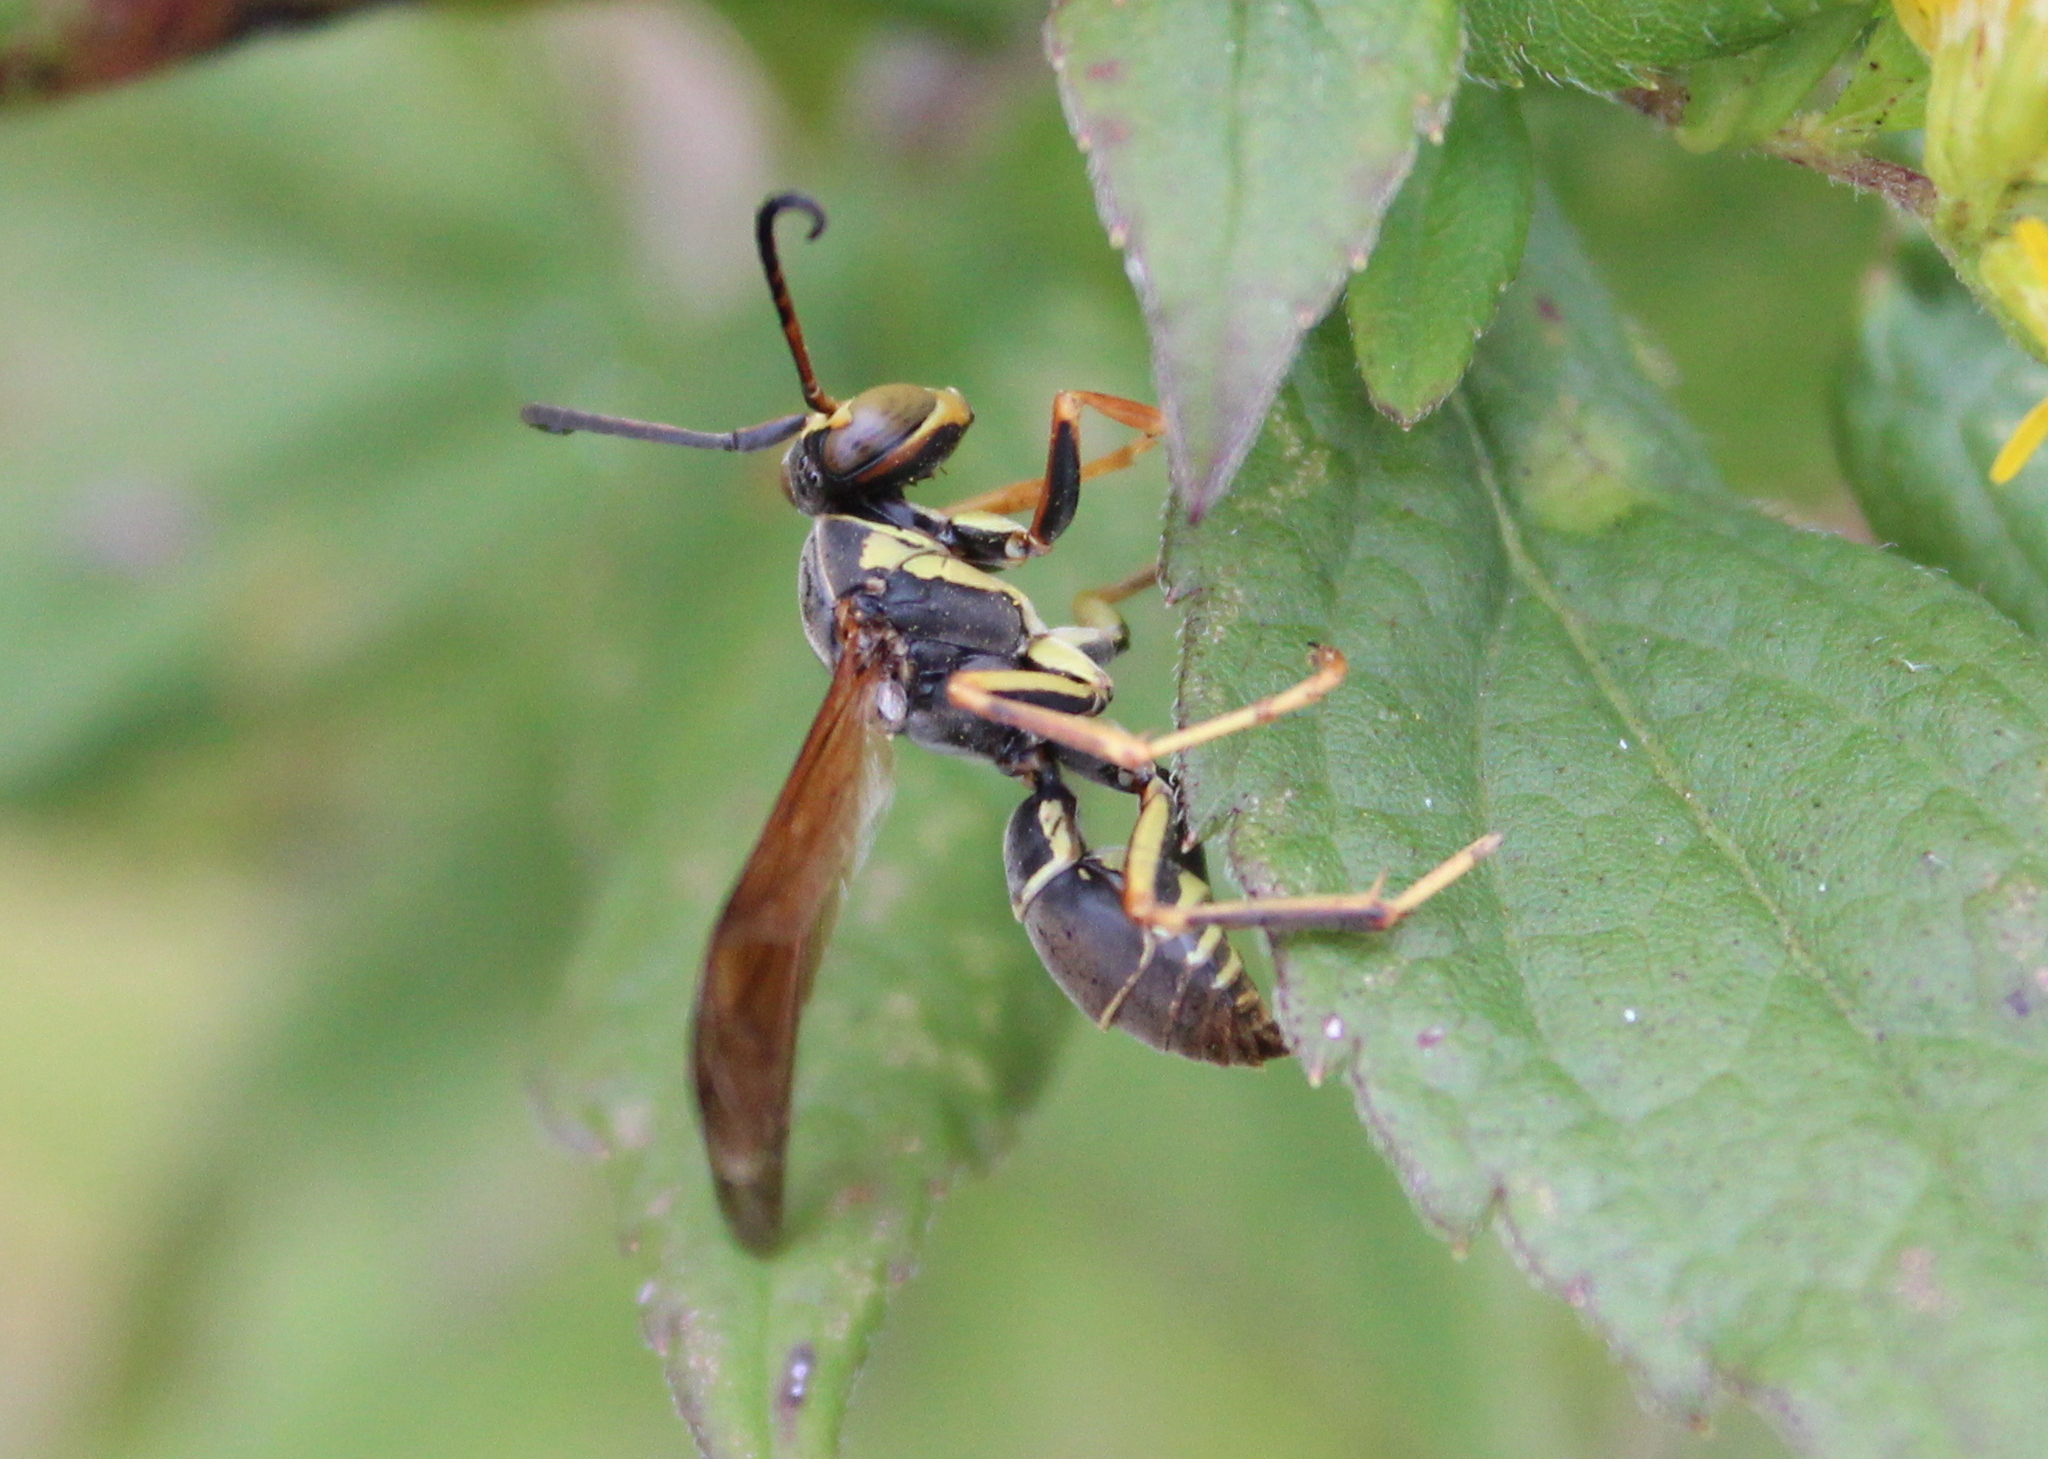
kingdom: Animalia
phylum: Arthropoda
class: Insecta
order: Hymenoptera
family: Eumenidae
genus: Polistes
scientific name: Polistes fuscatus
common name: Dark paper wasp
